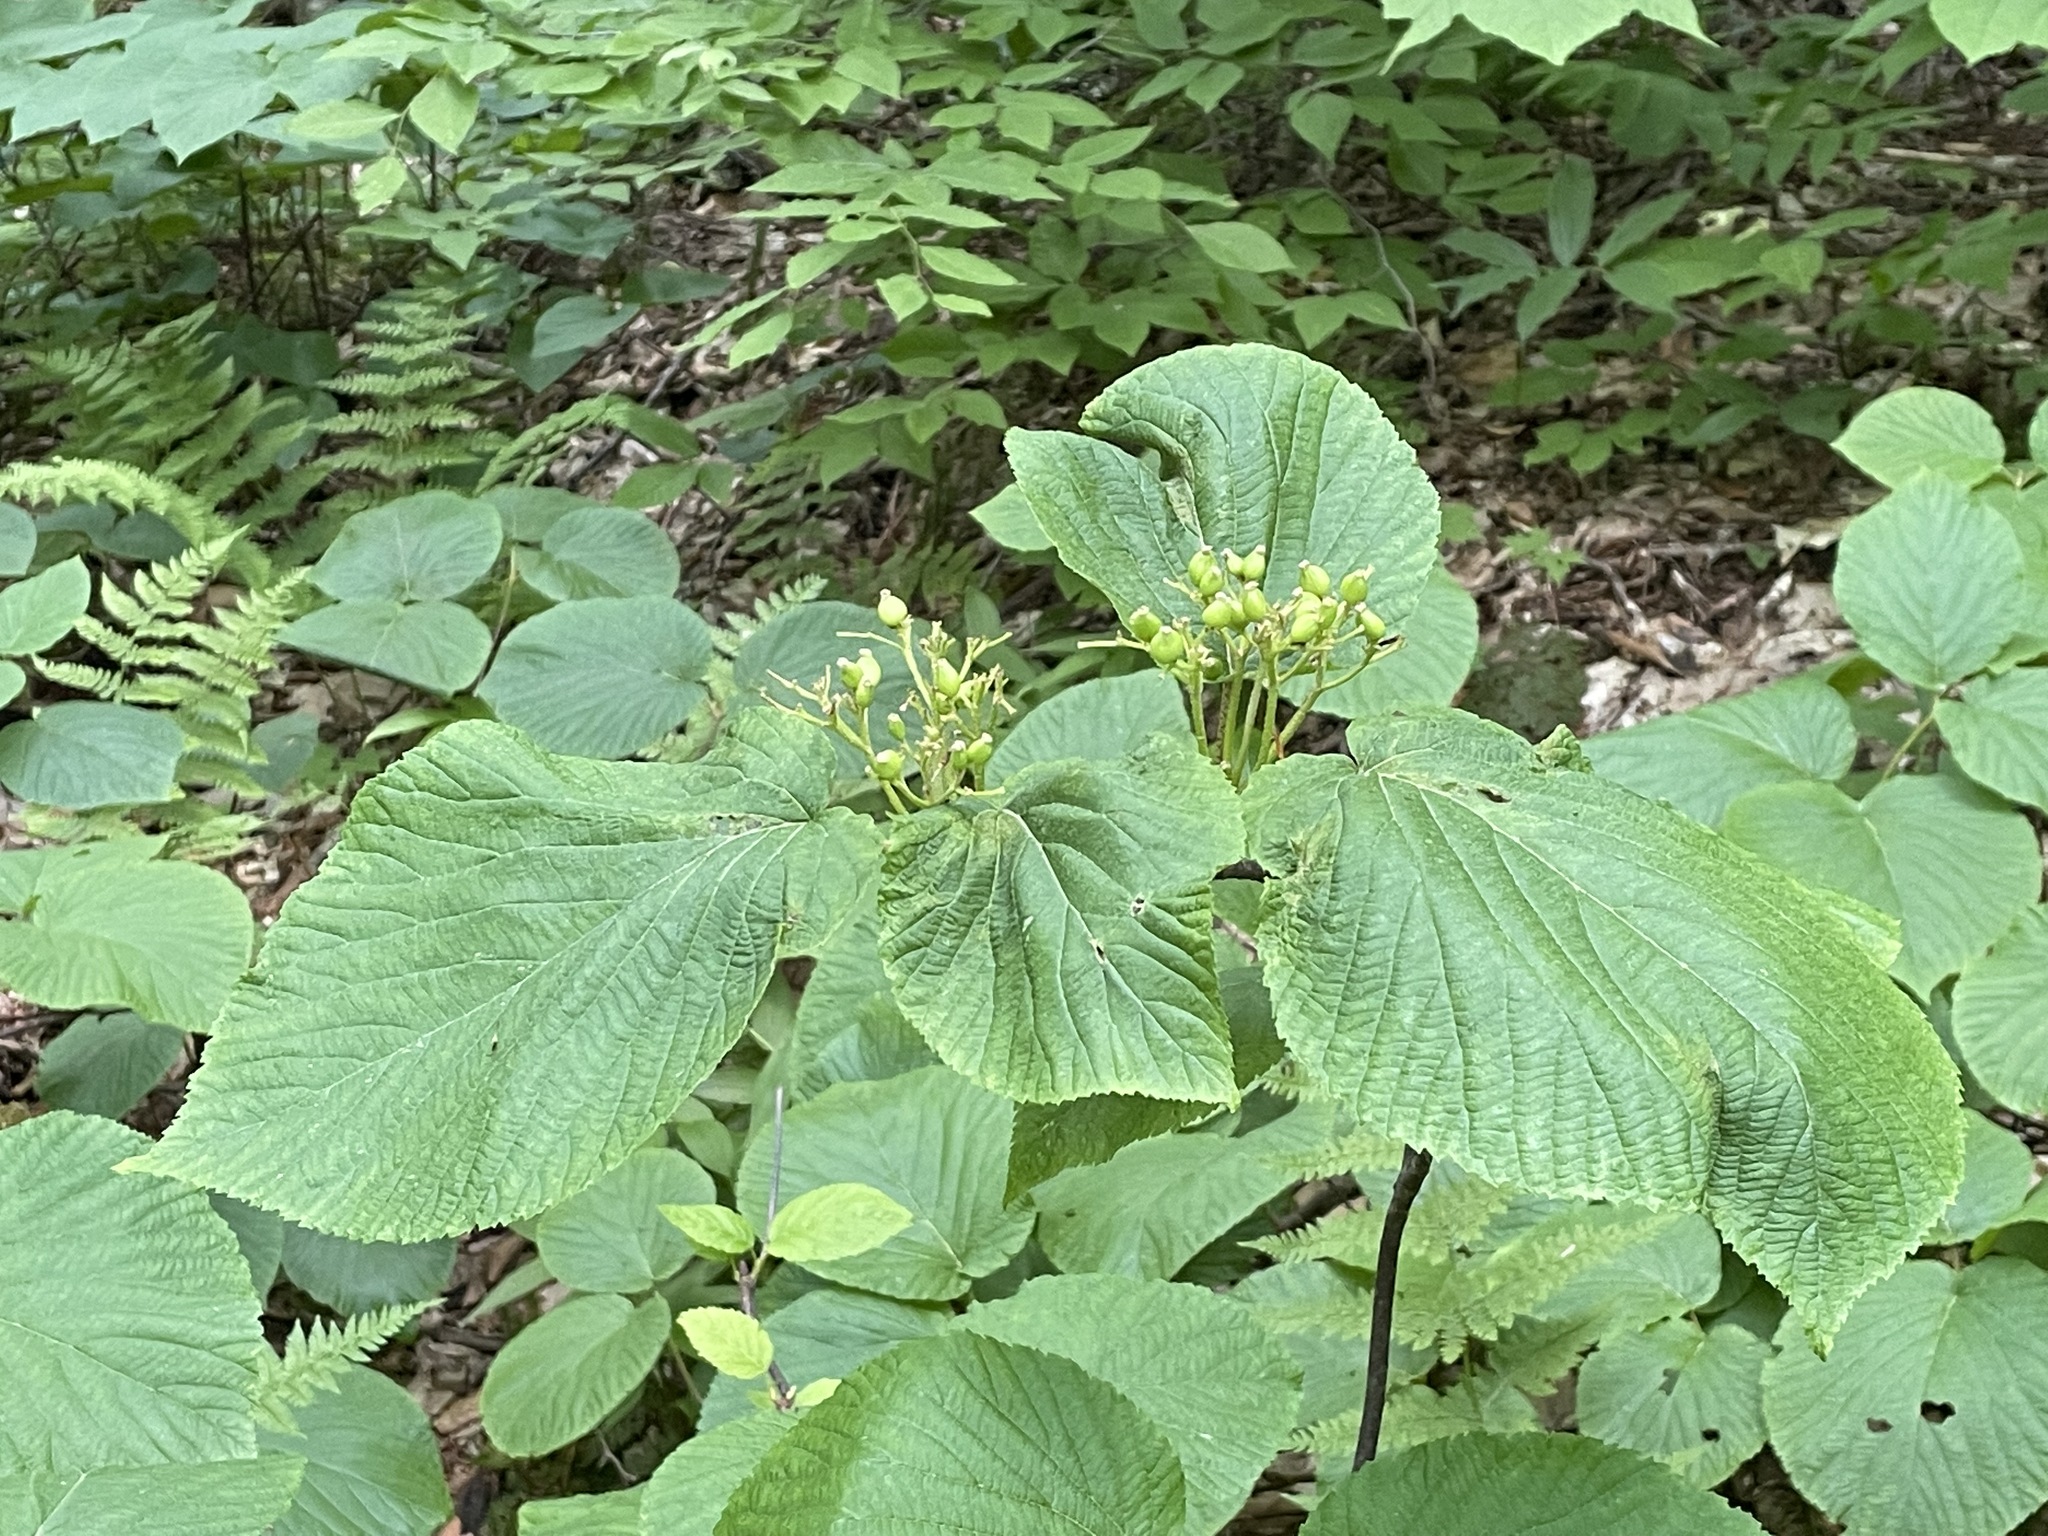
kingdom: Plantae
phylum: Tracheophyta
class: Magnoliopsida
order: Dipsacales
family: Viburnaceae
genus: Viburnum
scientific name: Viburnum lantanoides
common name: Hobblebush
